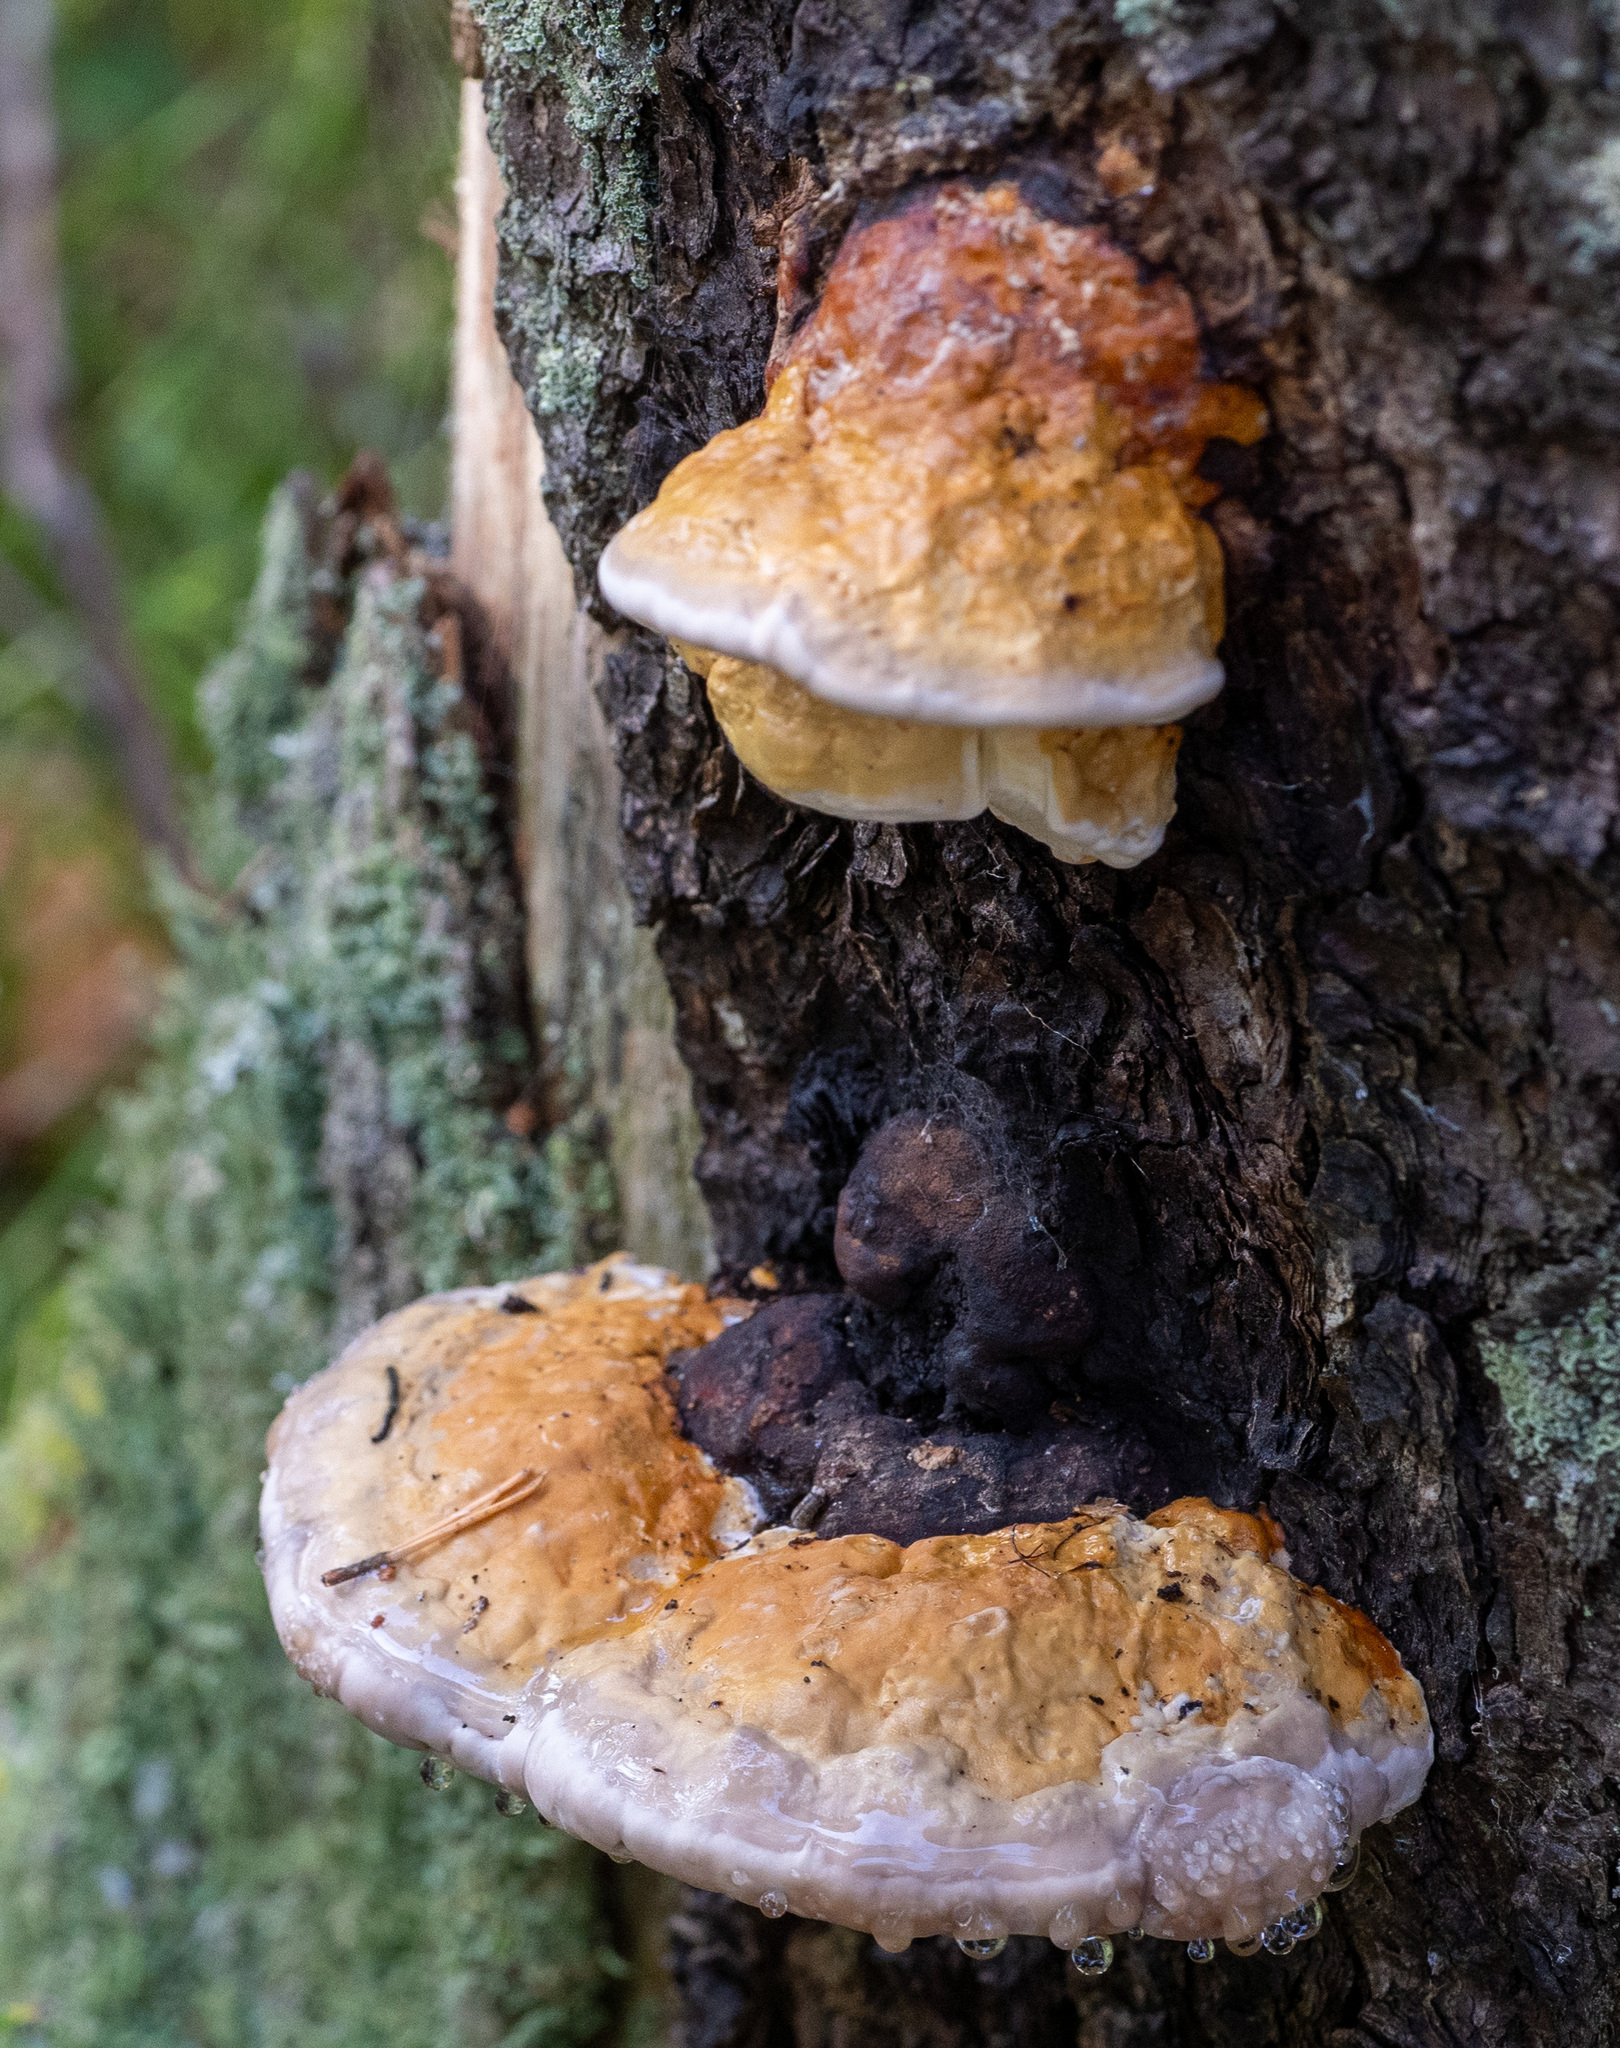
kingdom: Fungi
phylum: Basidiomycota
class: Agaricomycetes
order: Polyporales
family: Fomitopsidaceae
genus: Fomitopsis
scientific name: Fomitopsis pinicola
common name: Red-belted bracket
